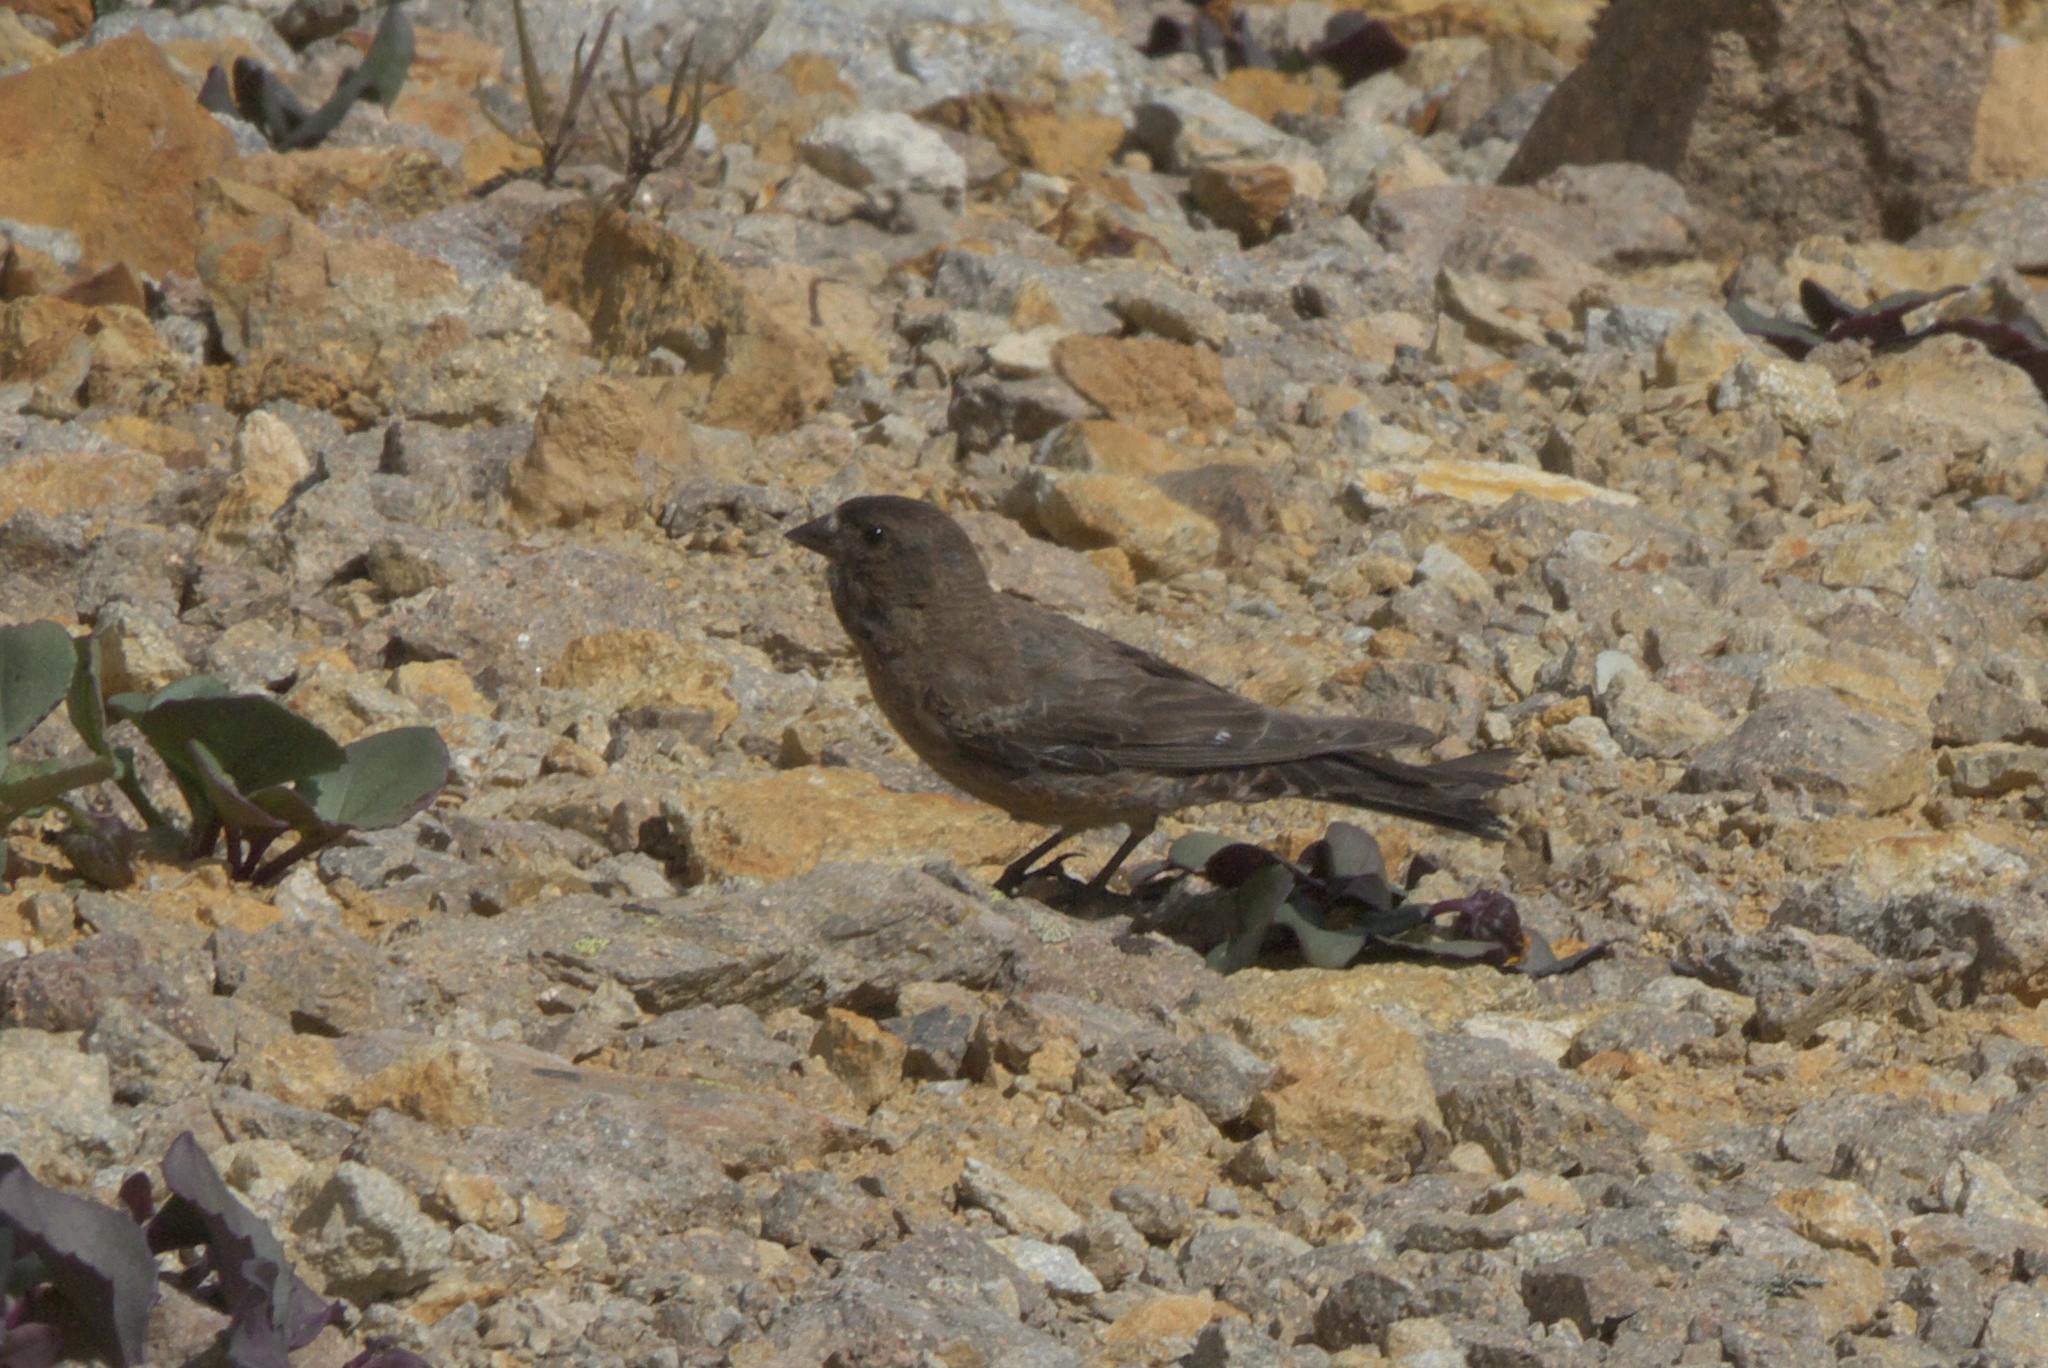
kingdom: Animalia
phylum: Chordata
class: Aves
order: Passeriformes
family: Fringillidae
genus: Leucosticte
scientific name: Leucosticte australis
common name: Brown-capped rosy-finch
